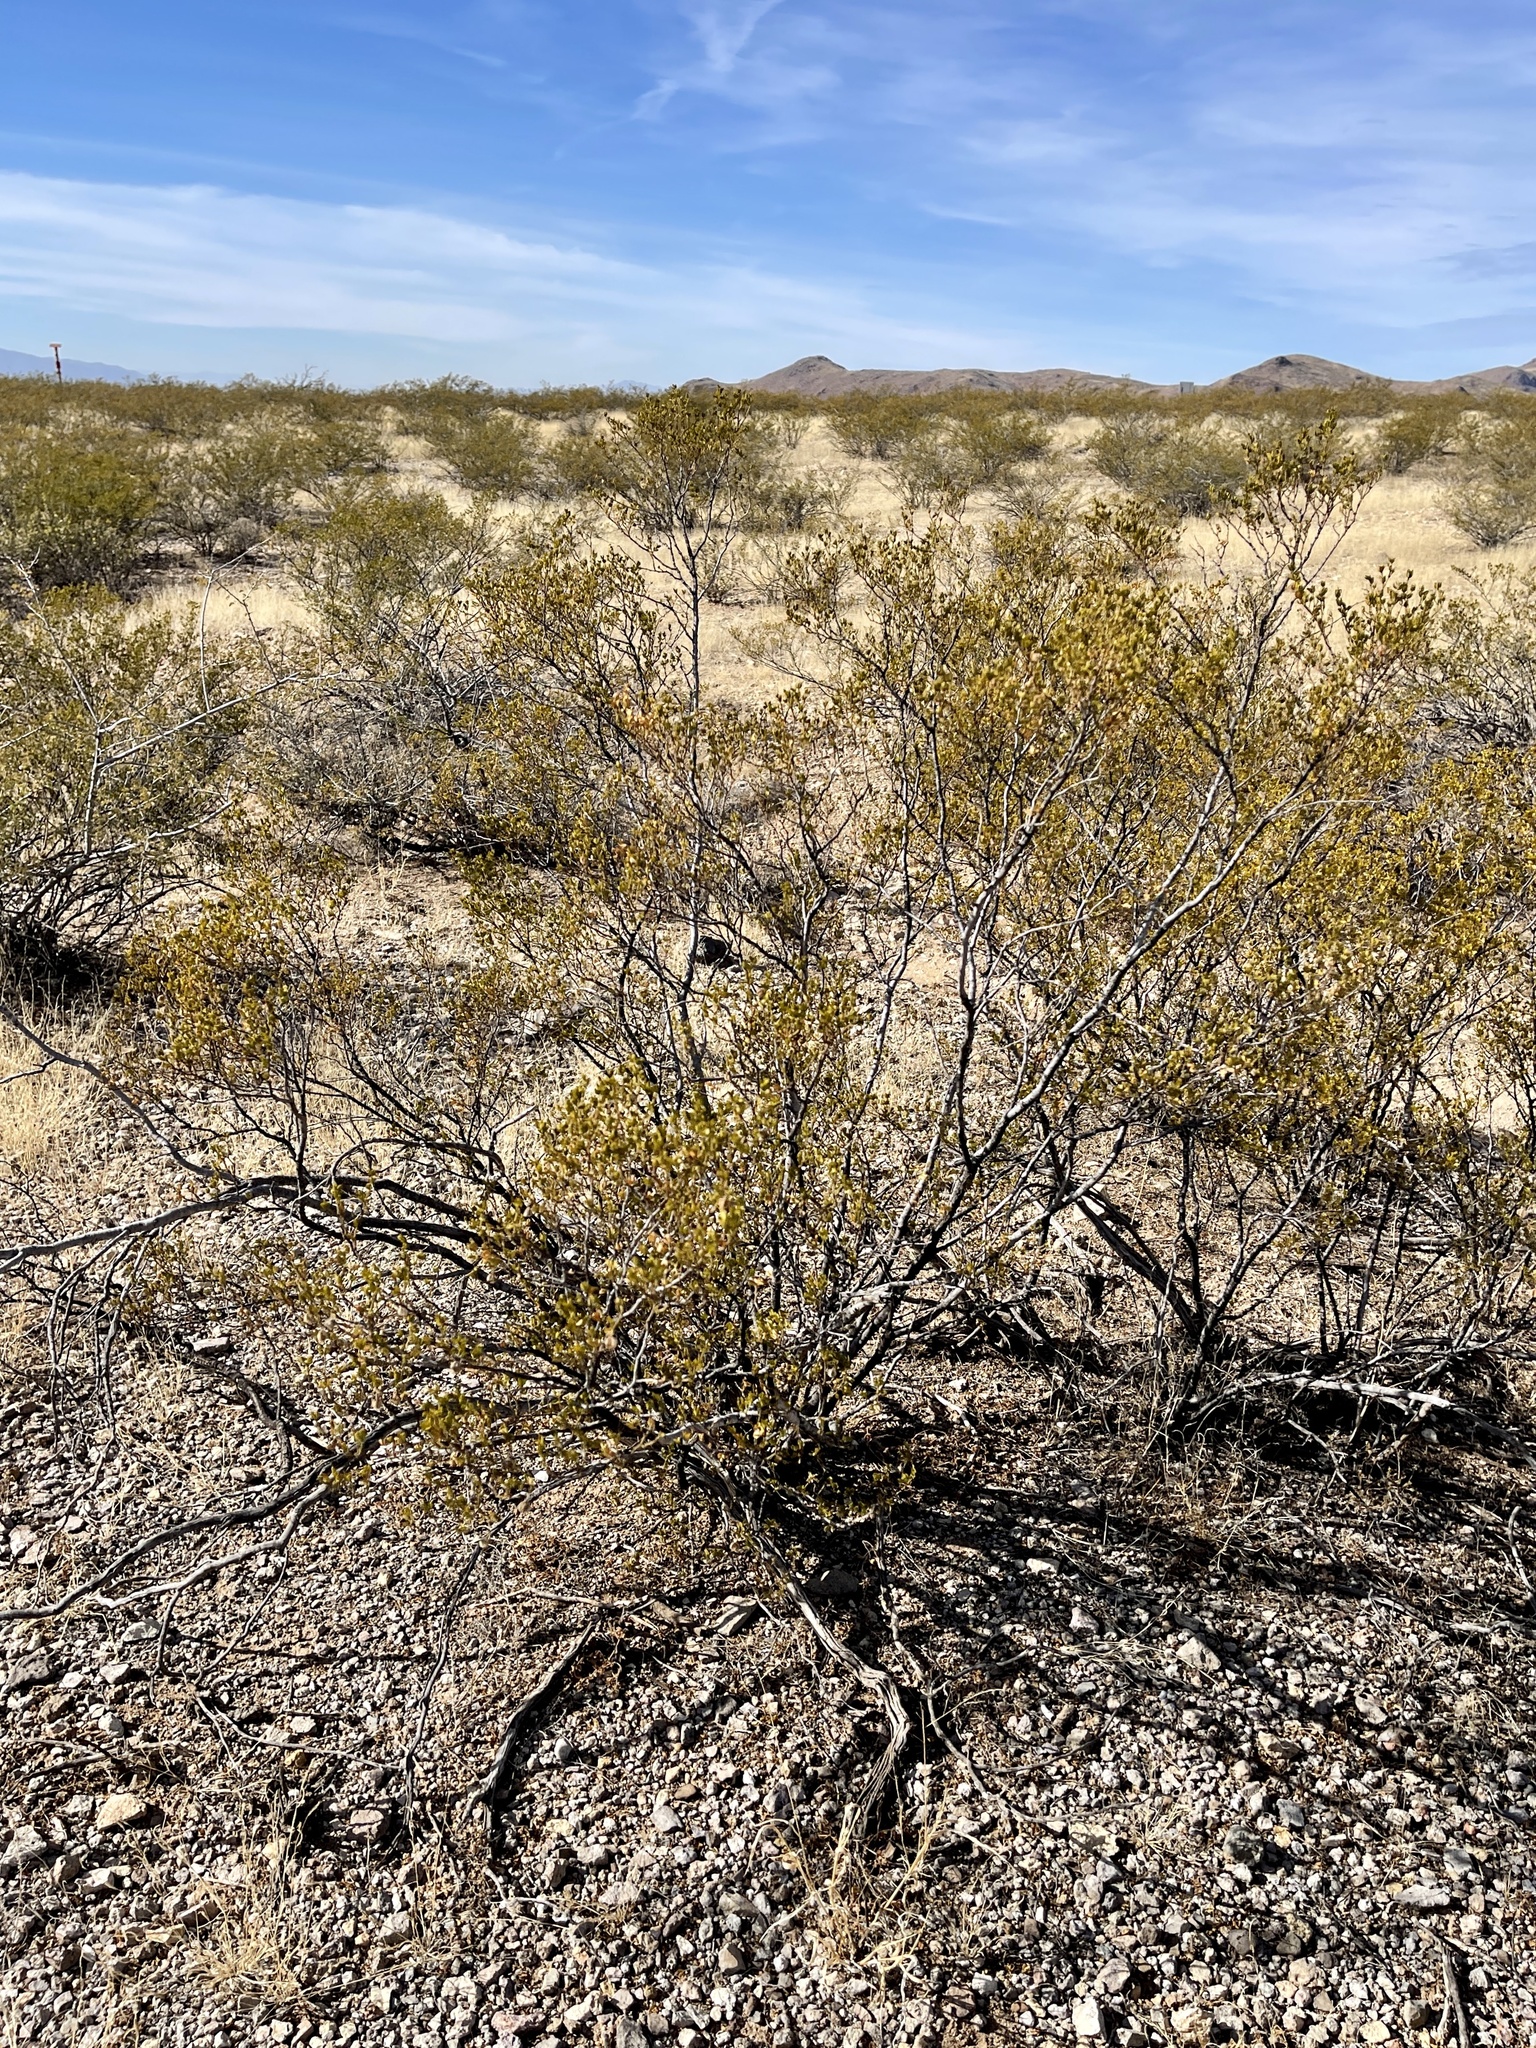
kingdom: Plantae
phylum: Tracheophyta
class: Magnoliopsida
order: Zygophyllales
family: Zygophyllaceae
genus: Larrea
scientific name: Larrea tridentata
